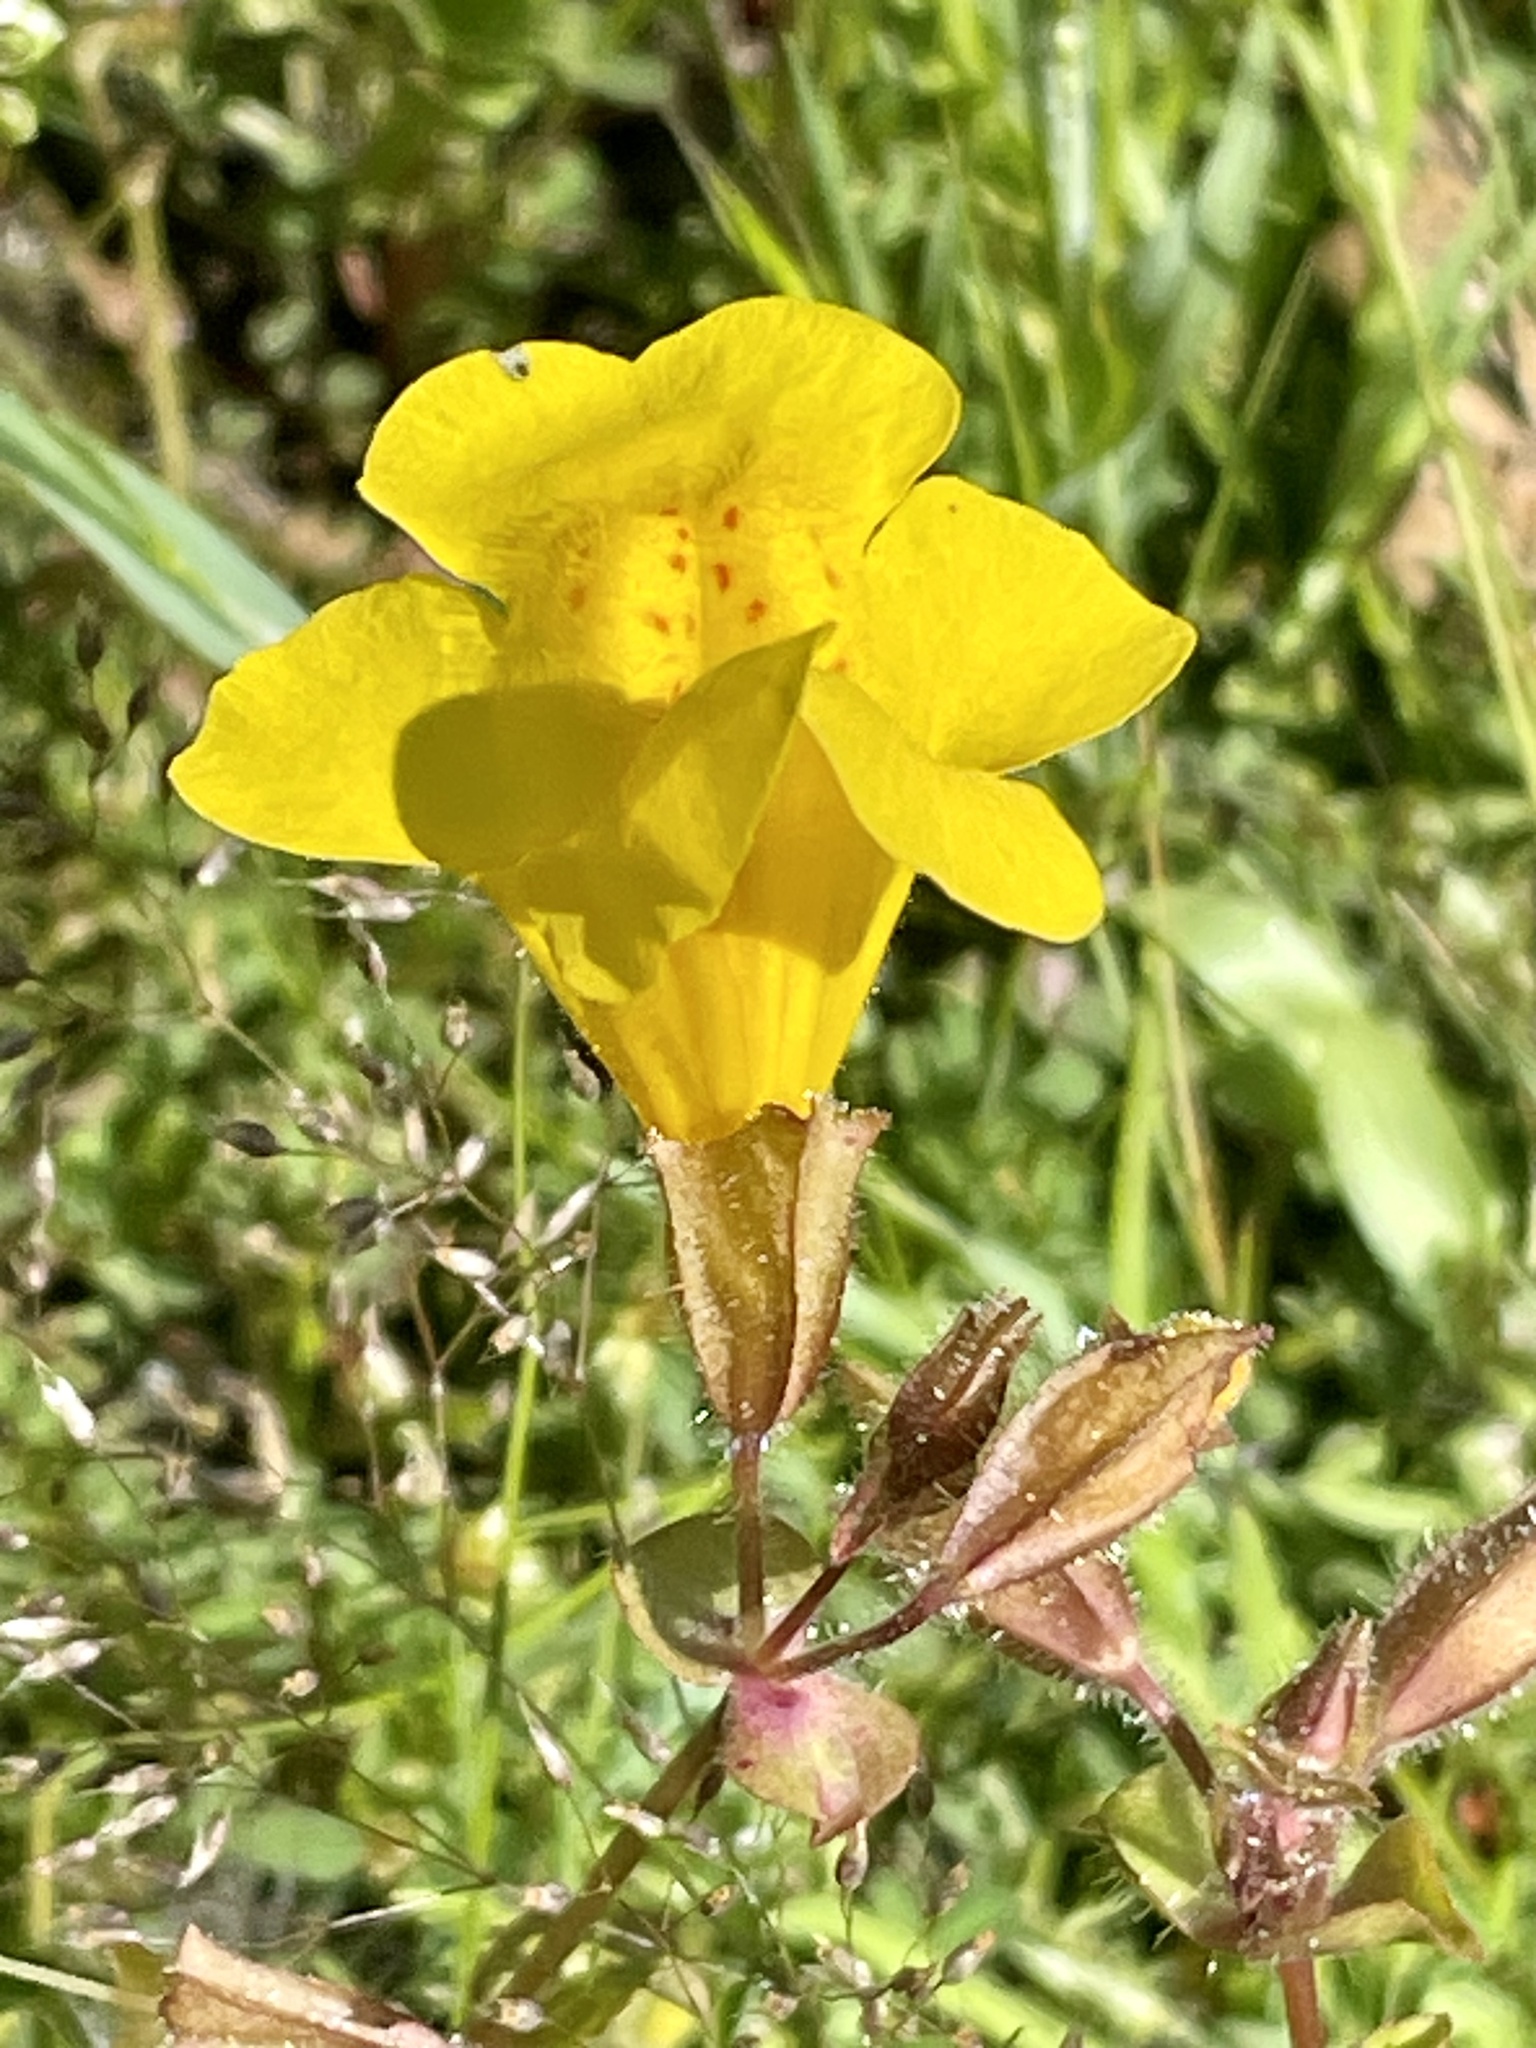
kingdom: Plantae
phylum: Tracheophyta
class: Magnoliopsida
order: Lamiales
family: Phrymaceae
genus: Erythranthe
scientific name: Erythranthe guttata
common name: Monkeyflower
